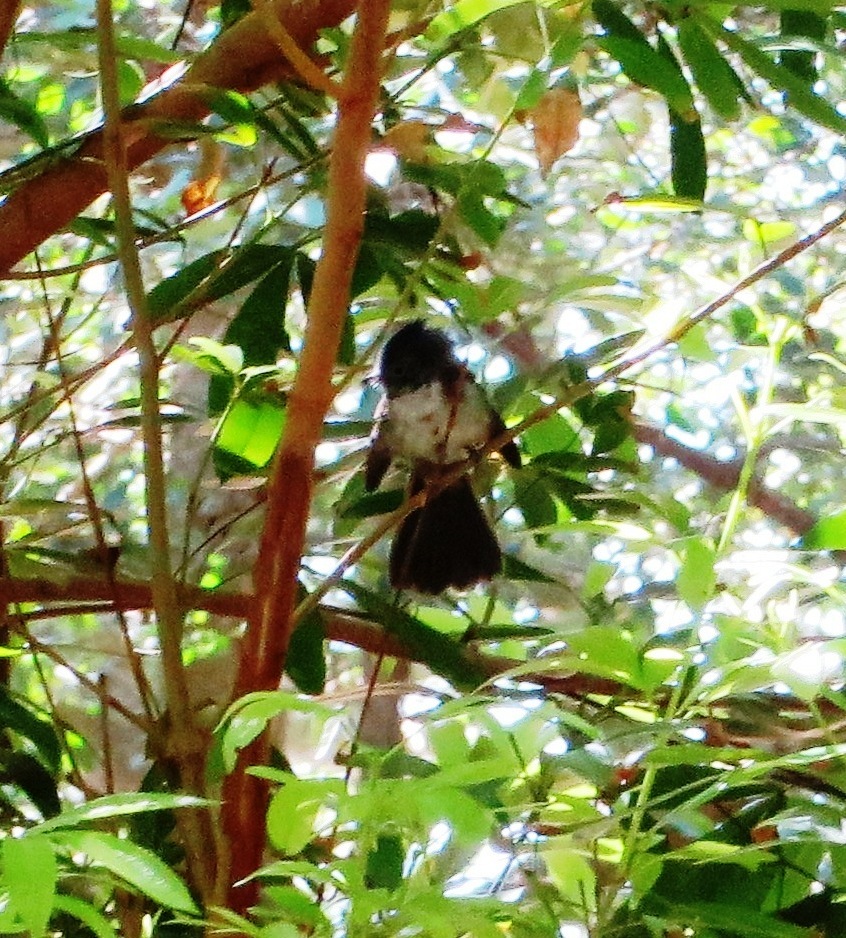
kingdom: Animalia
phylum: Chordata
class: Aves
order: Passeriformes
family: Monarchidae
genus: Trochocercus
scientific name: Trochocercus cyanomelas
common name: Blue-mantled crested flycatcher
